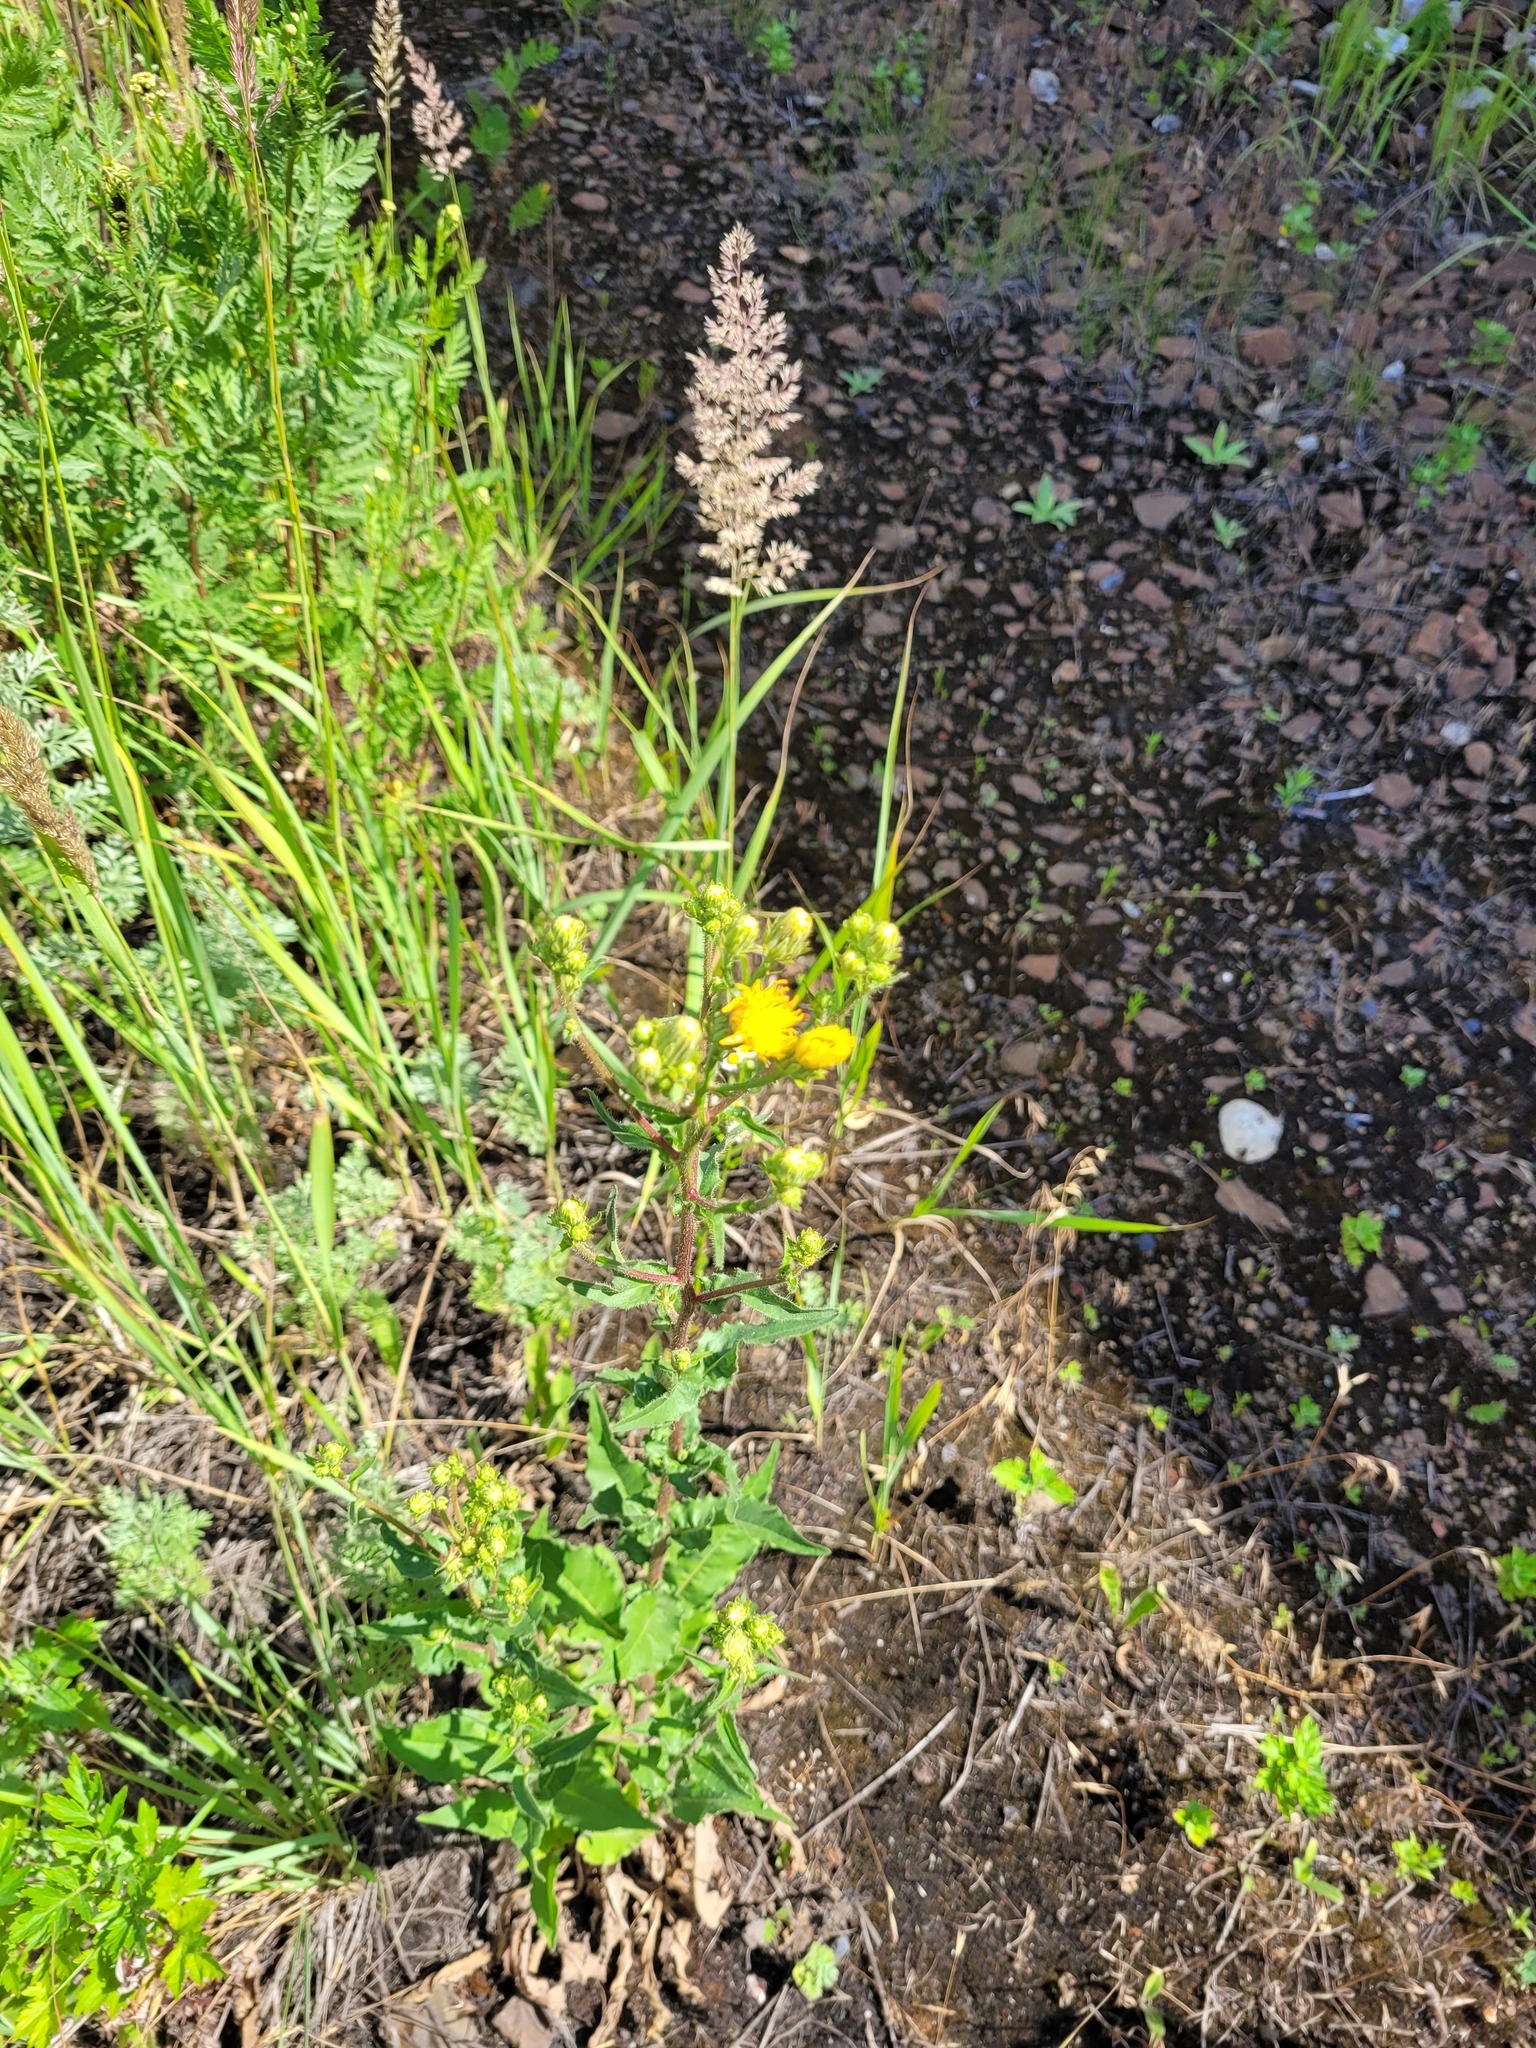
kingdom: Plantae
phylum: Tracheophyta
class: Magnoliopsida
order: Asterales
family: Asteraceae
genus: Picris
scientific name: Picris hieracioides
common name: Hawkweed oxtongue
